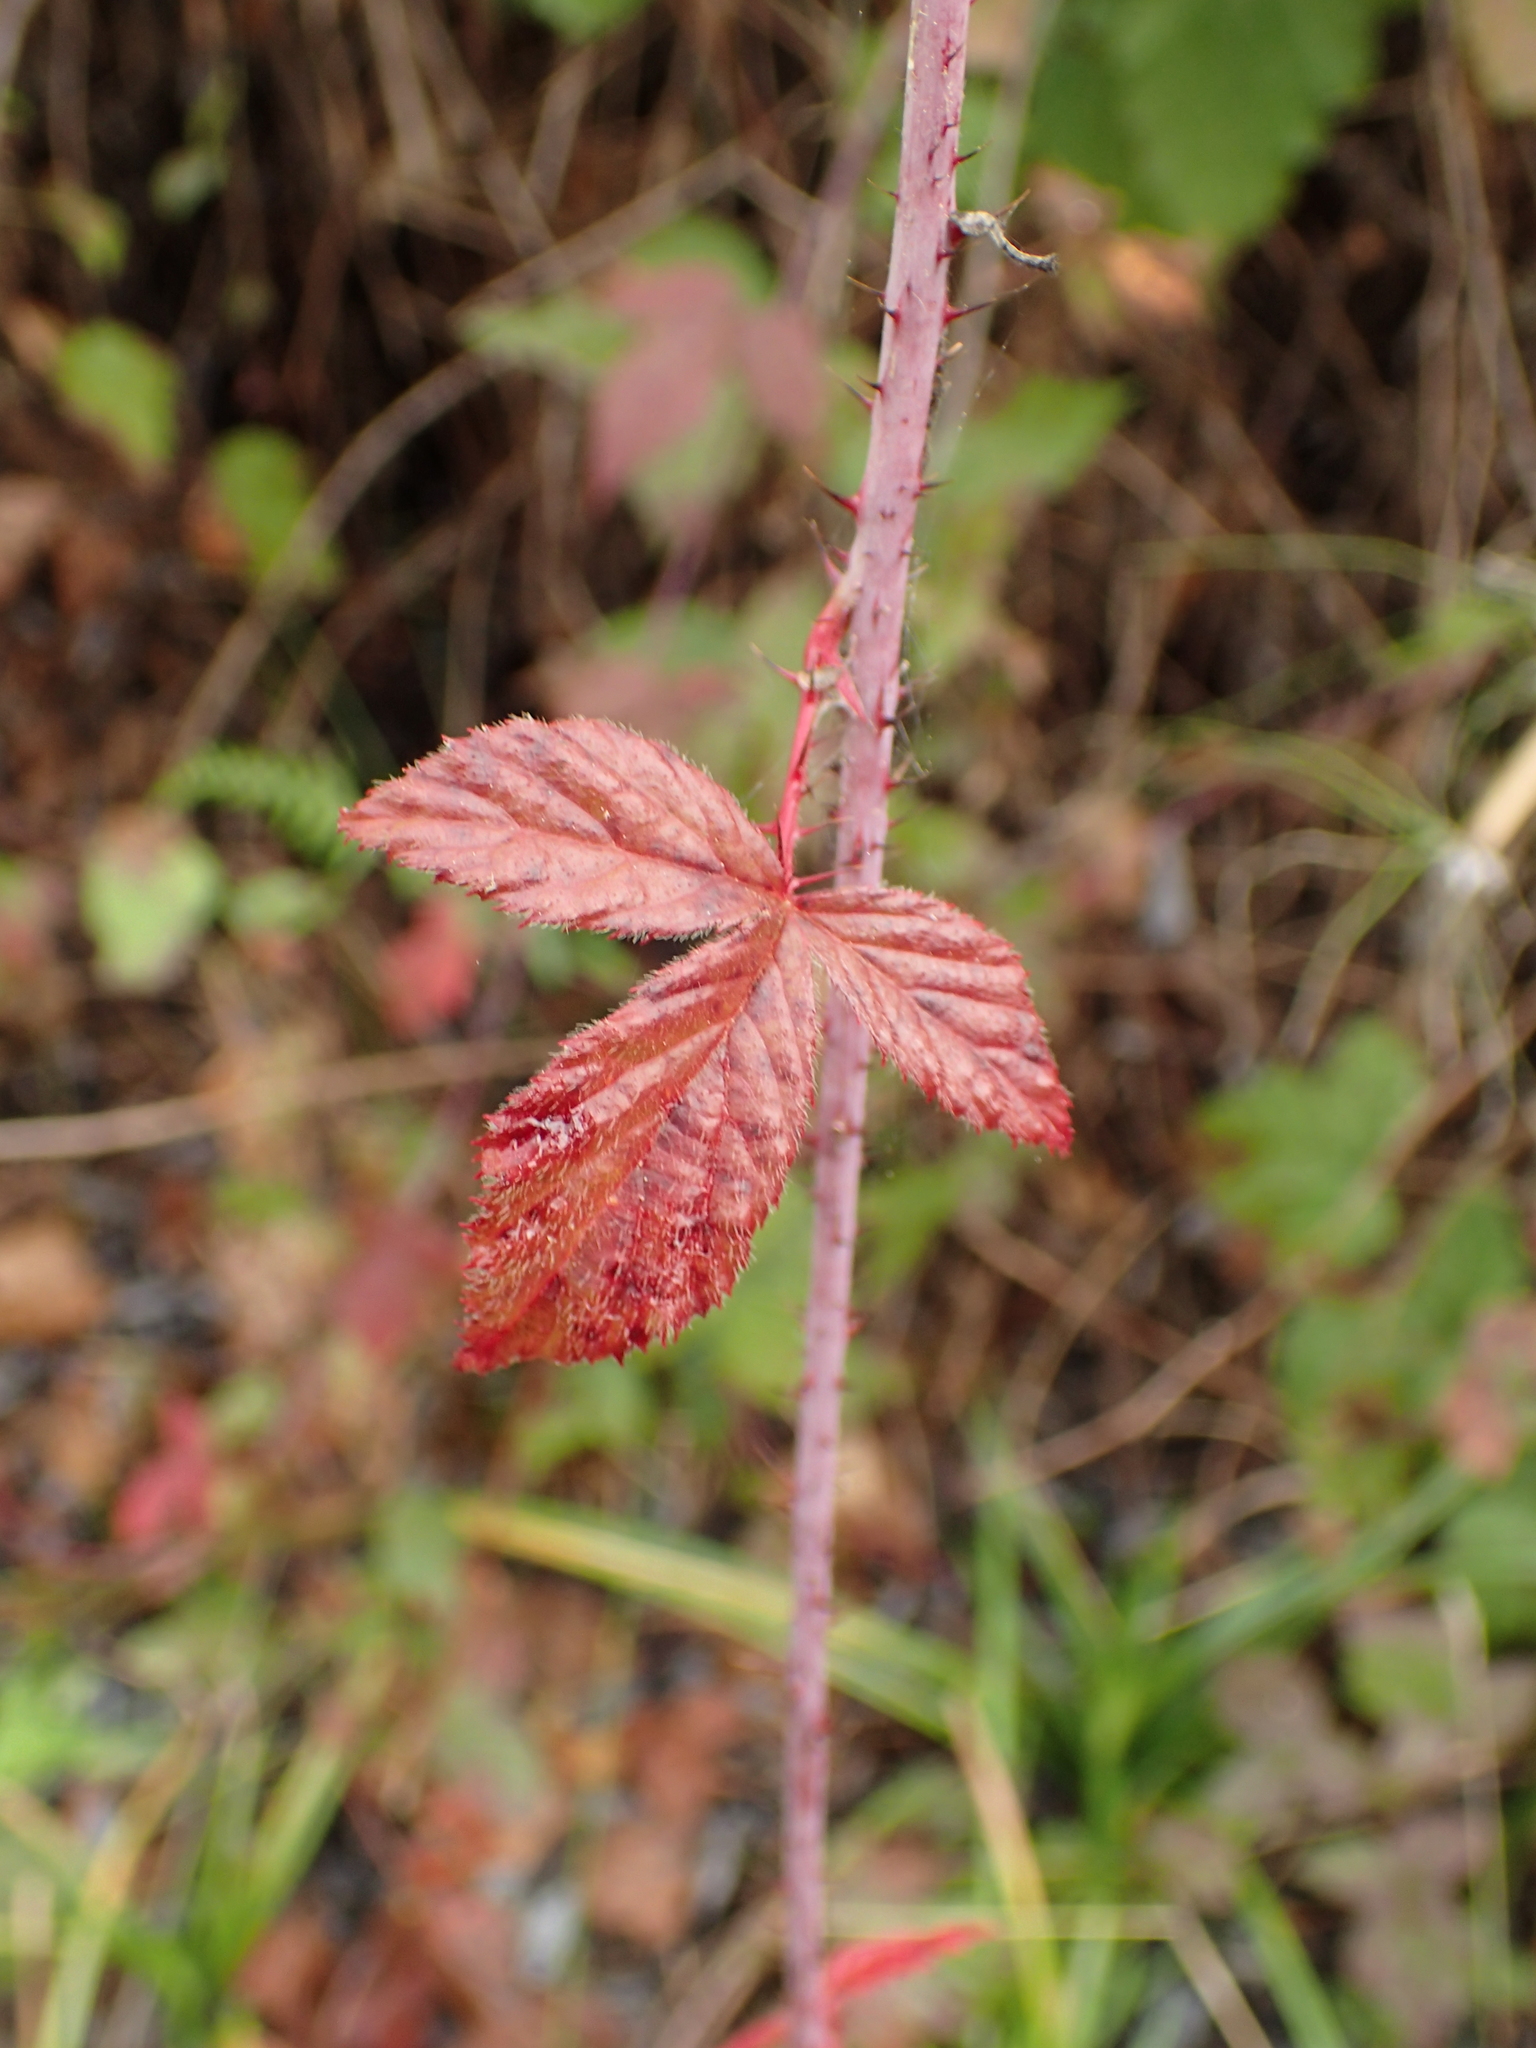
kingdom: Plantae
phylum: Tracheophyta
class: Magnoliopsida
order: Rosales
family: Rosaceae
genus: Rubus
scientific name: Rubus ursinus
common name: Pacific blackberry
